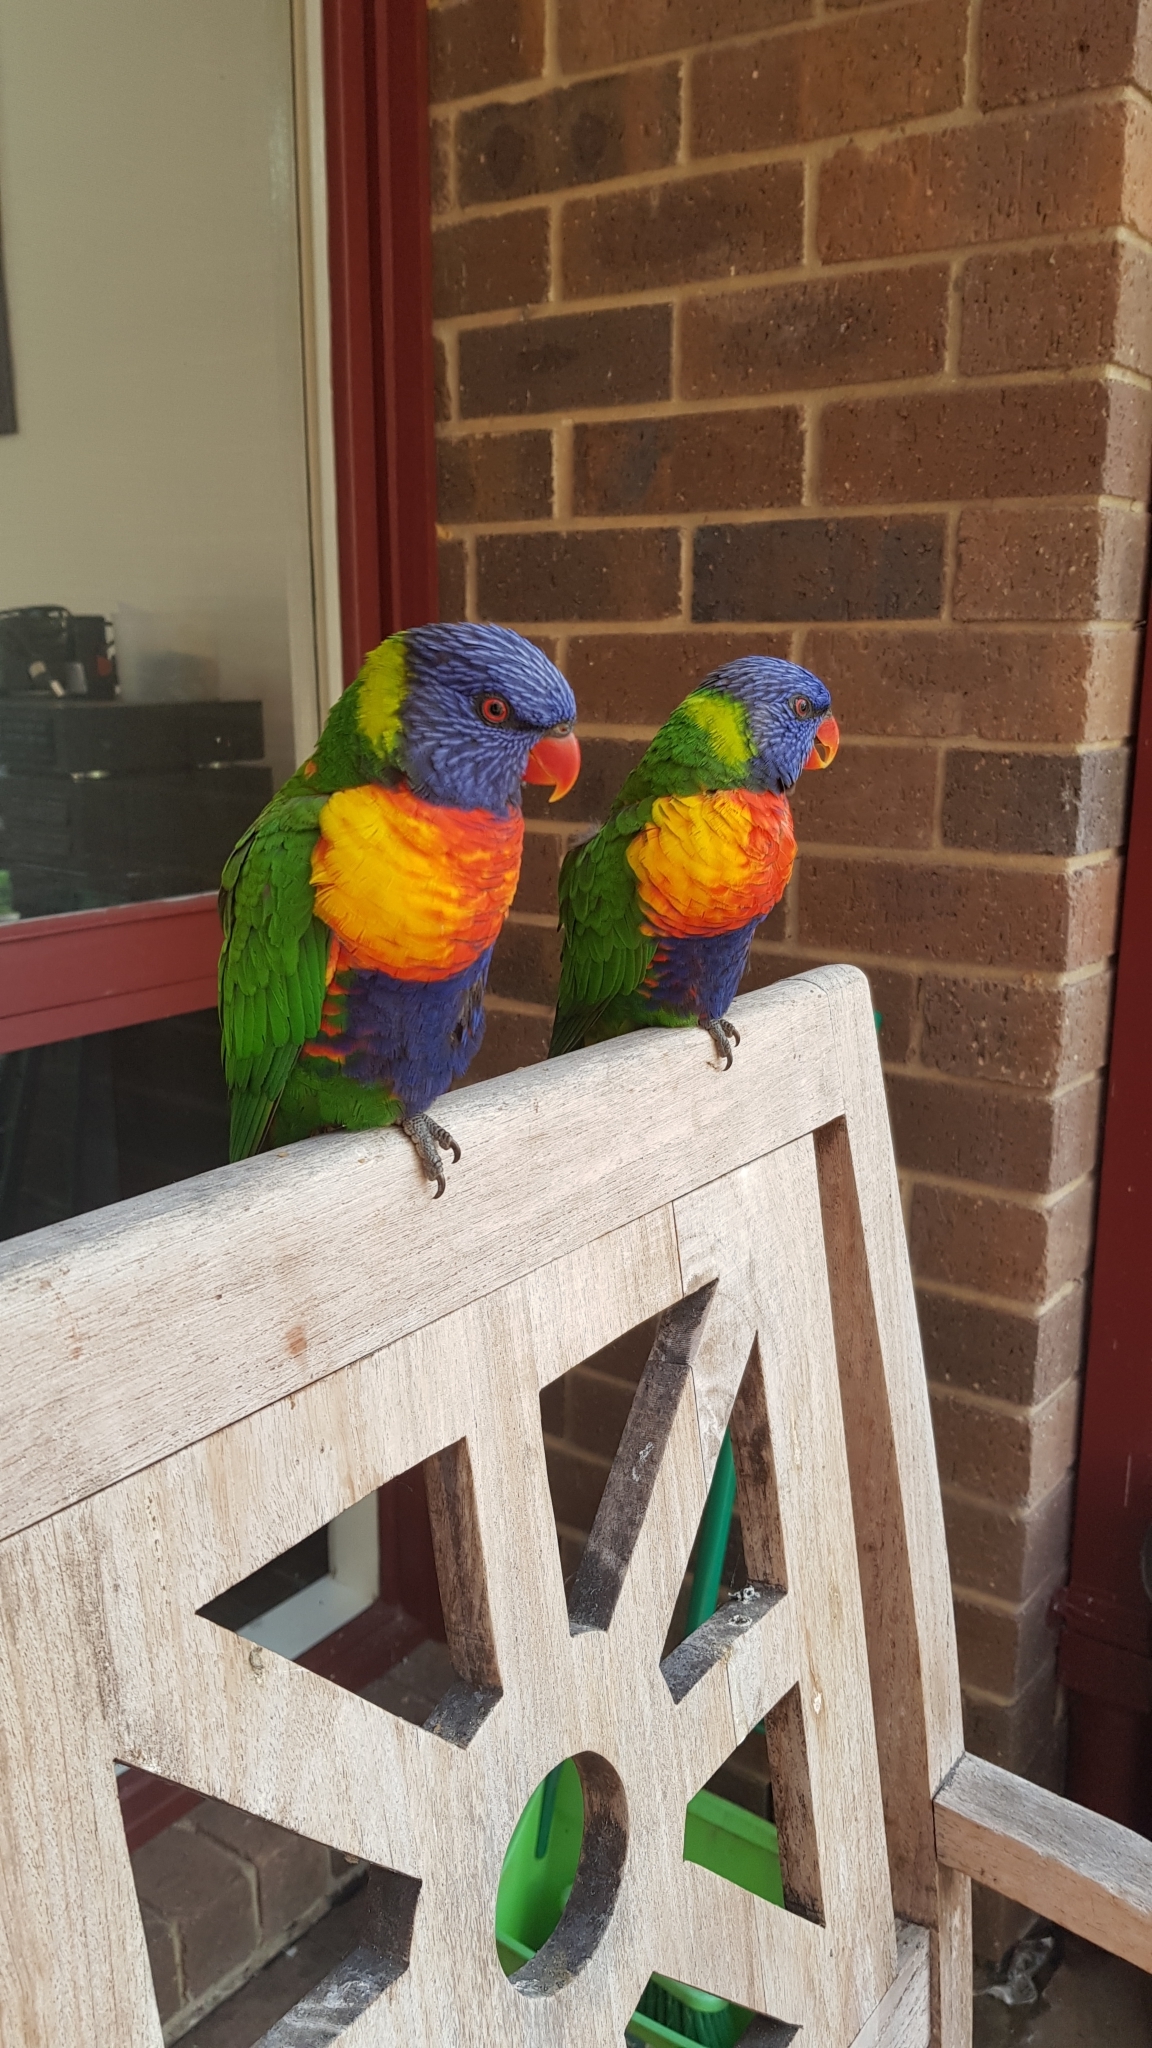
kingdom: Animalia
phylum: Chordata
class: Aves
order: Psittaciformes
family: Psittacidae
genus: Trichoglossus
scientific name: Trichoglossus haematodus
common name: Coconut lorikeet
